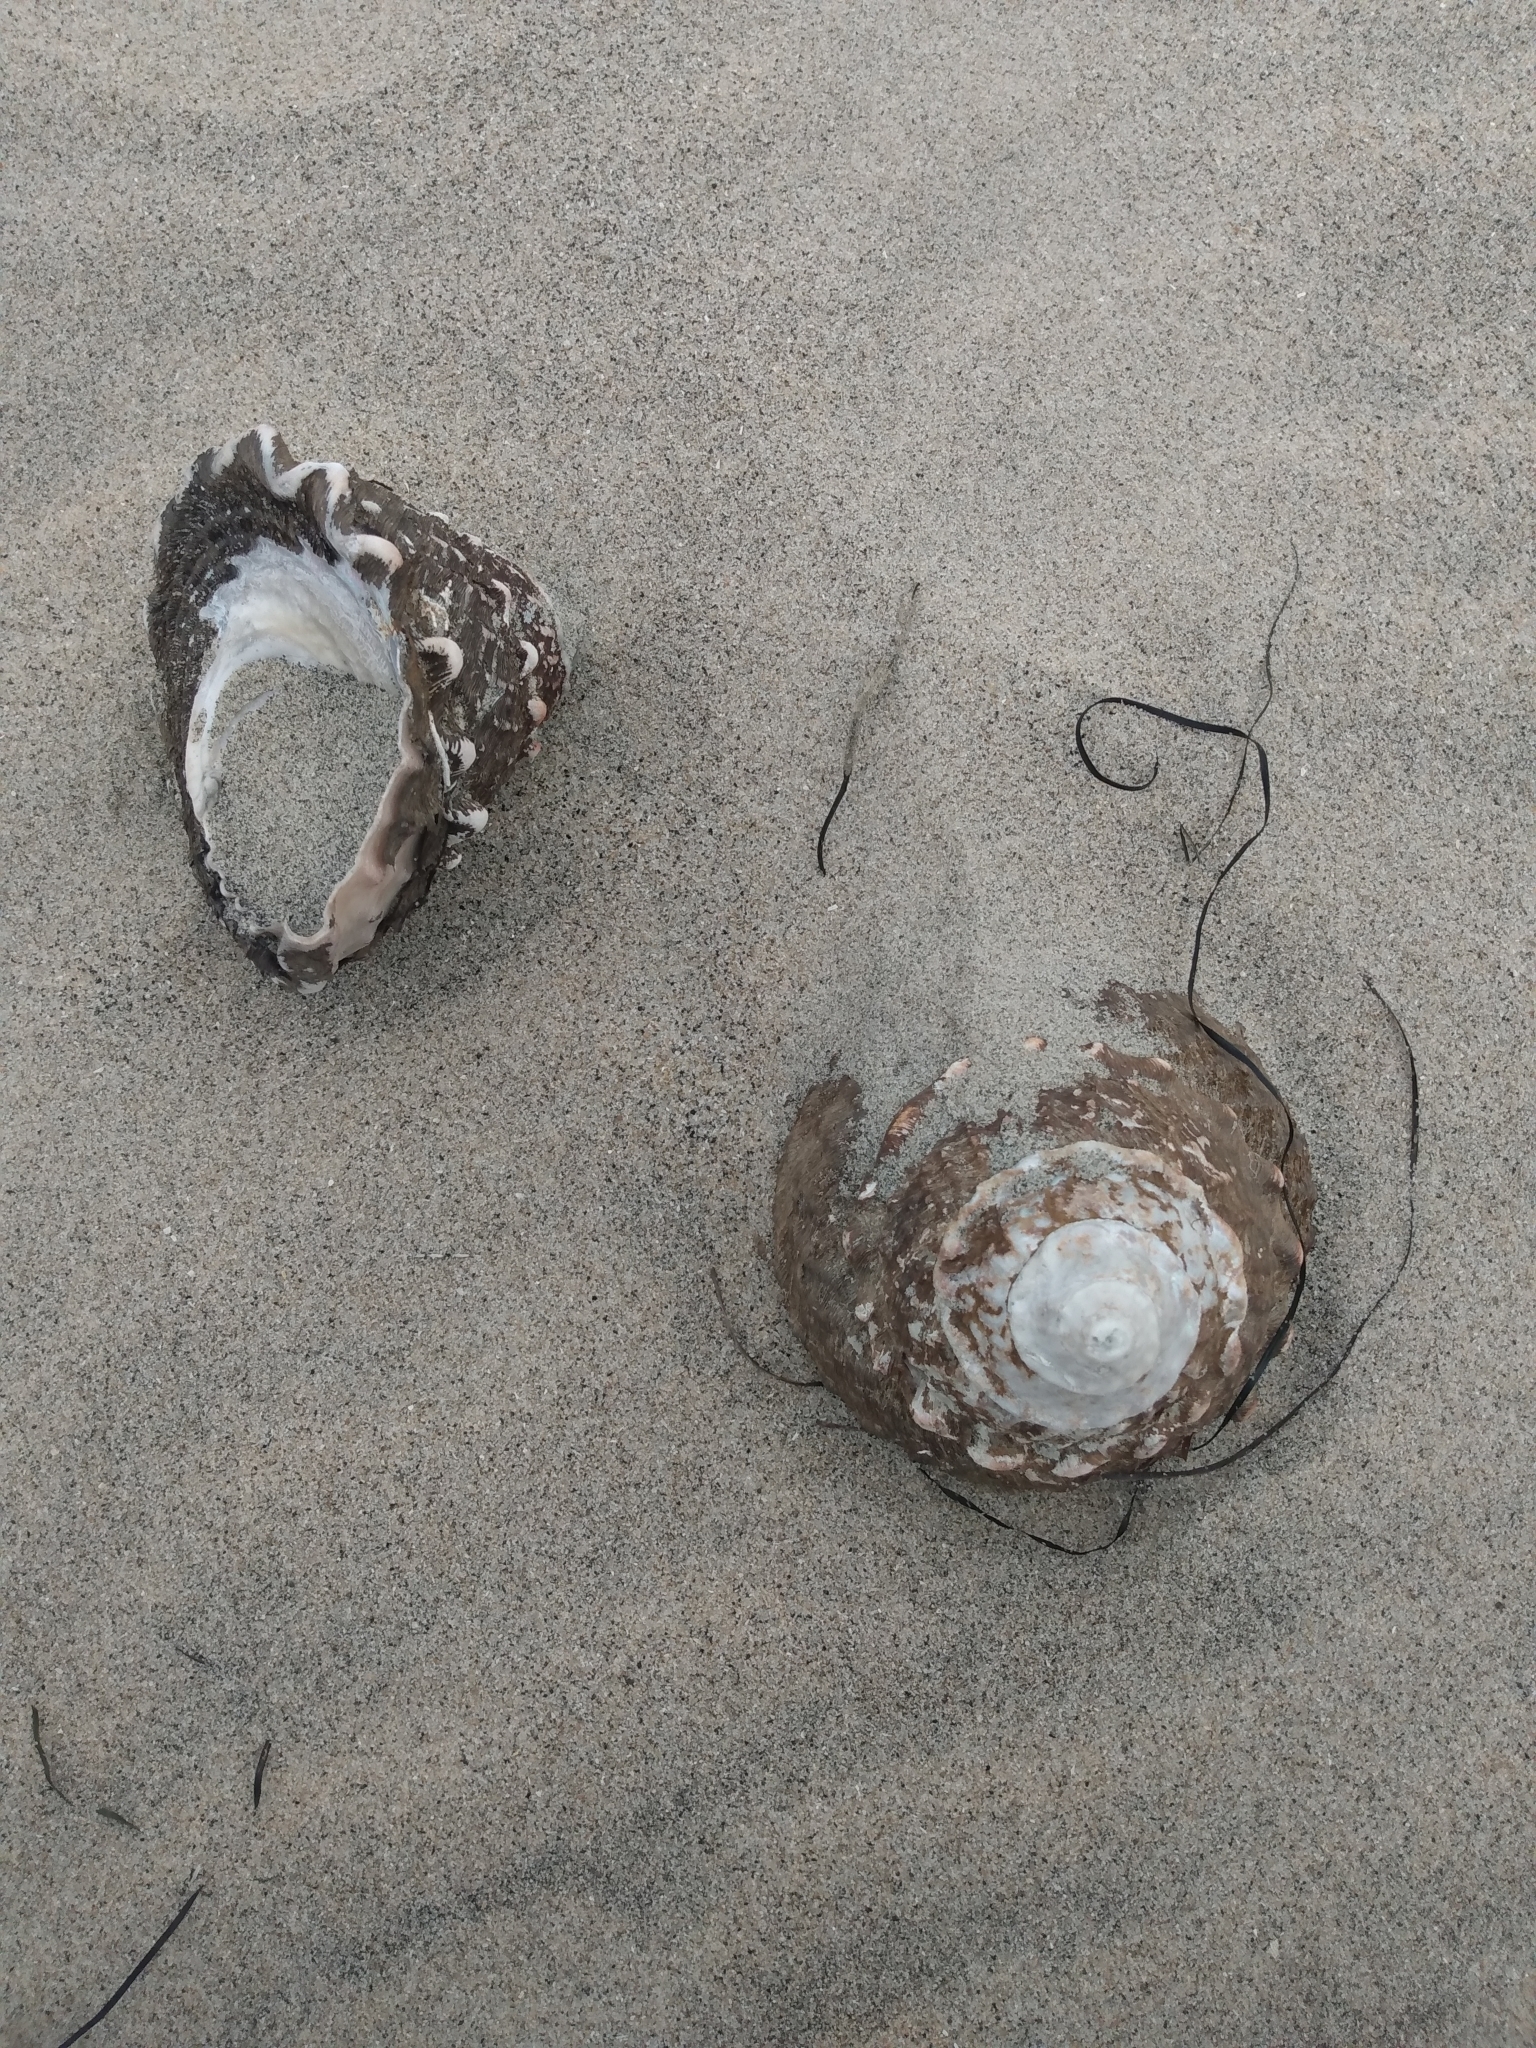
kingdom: Animalia
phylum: Mollusca
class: Gastropoda
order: Trochida
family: Turbinidae
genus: Megastraea
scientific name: Megastraea undosa
